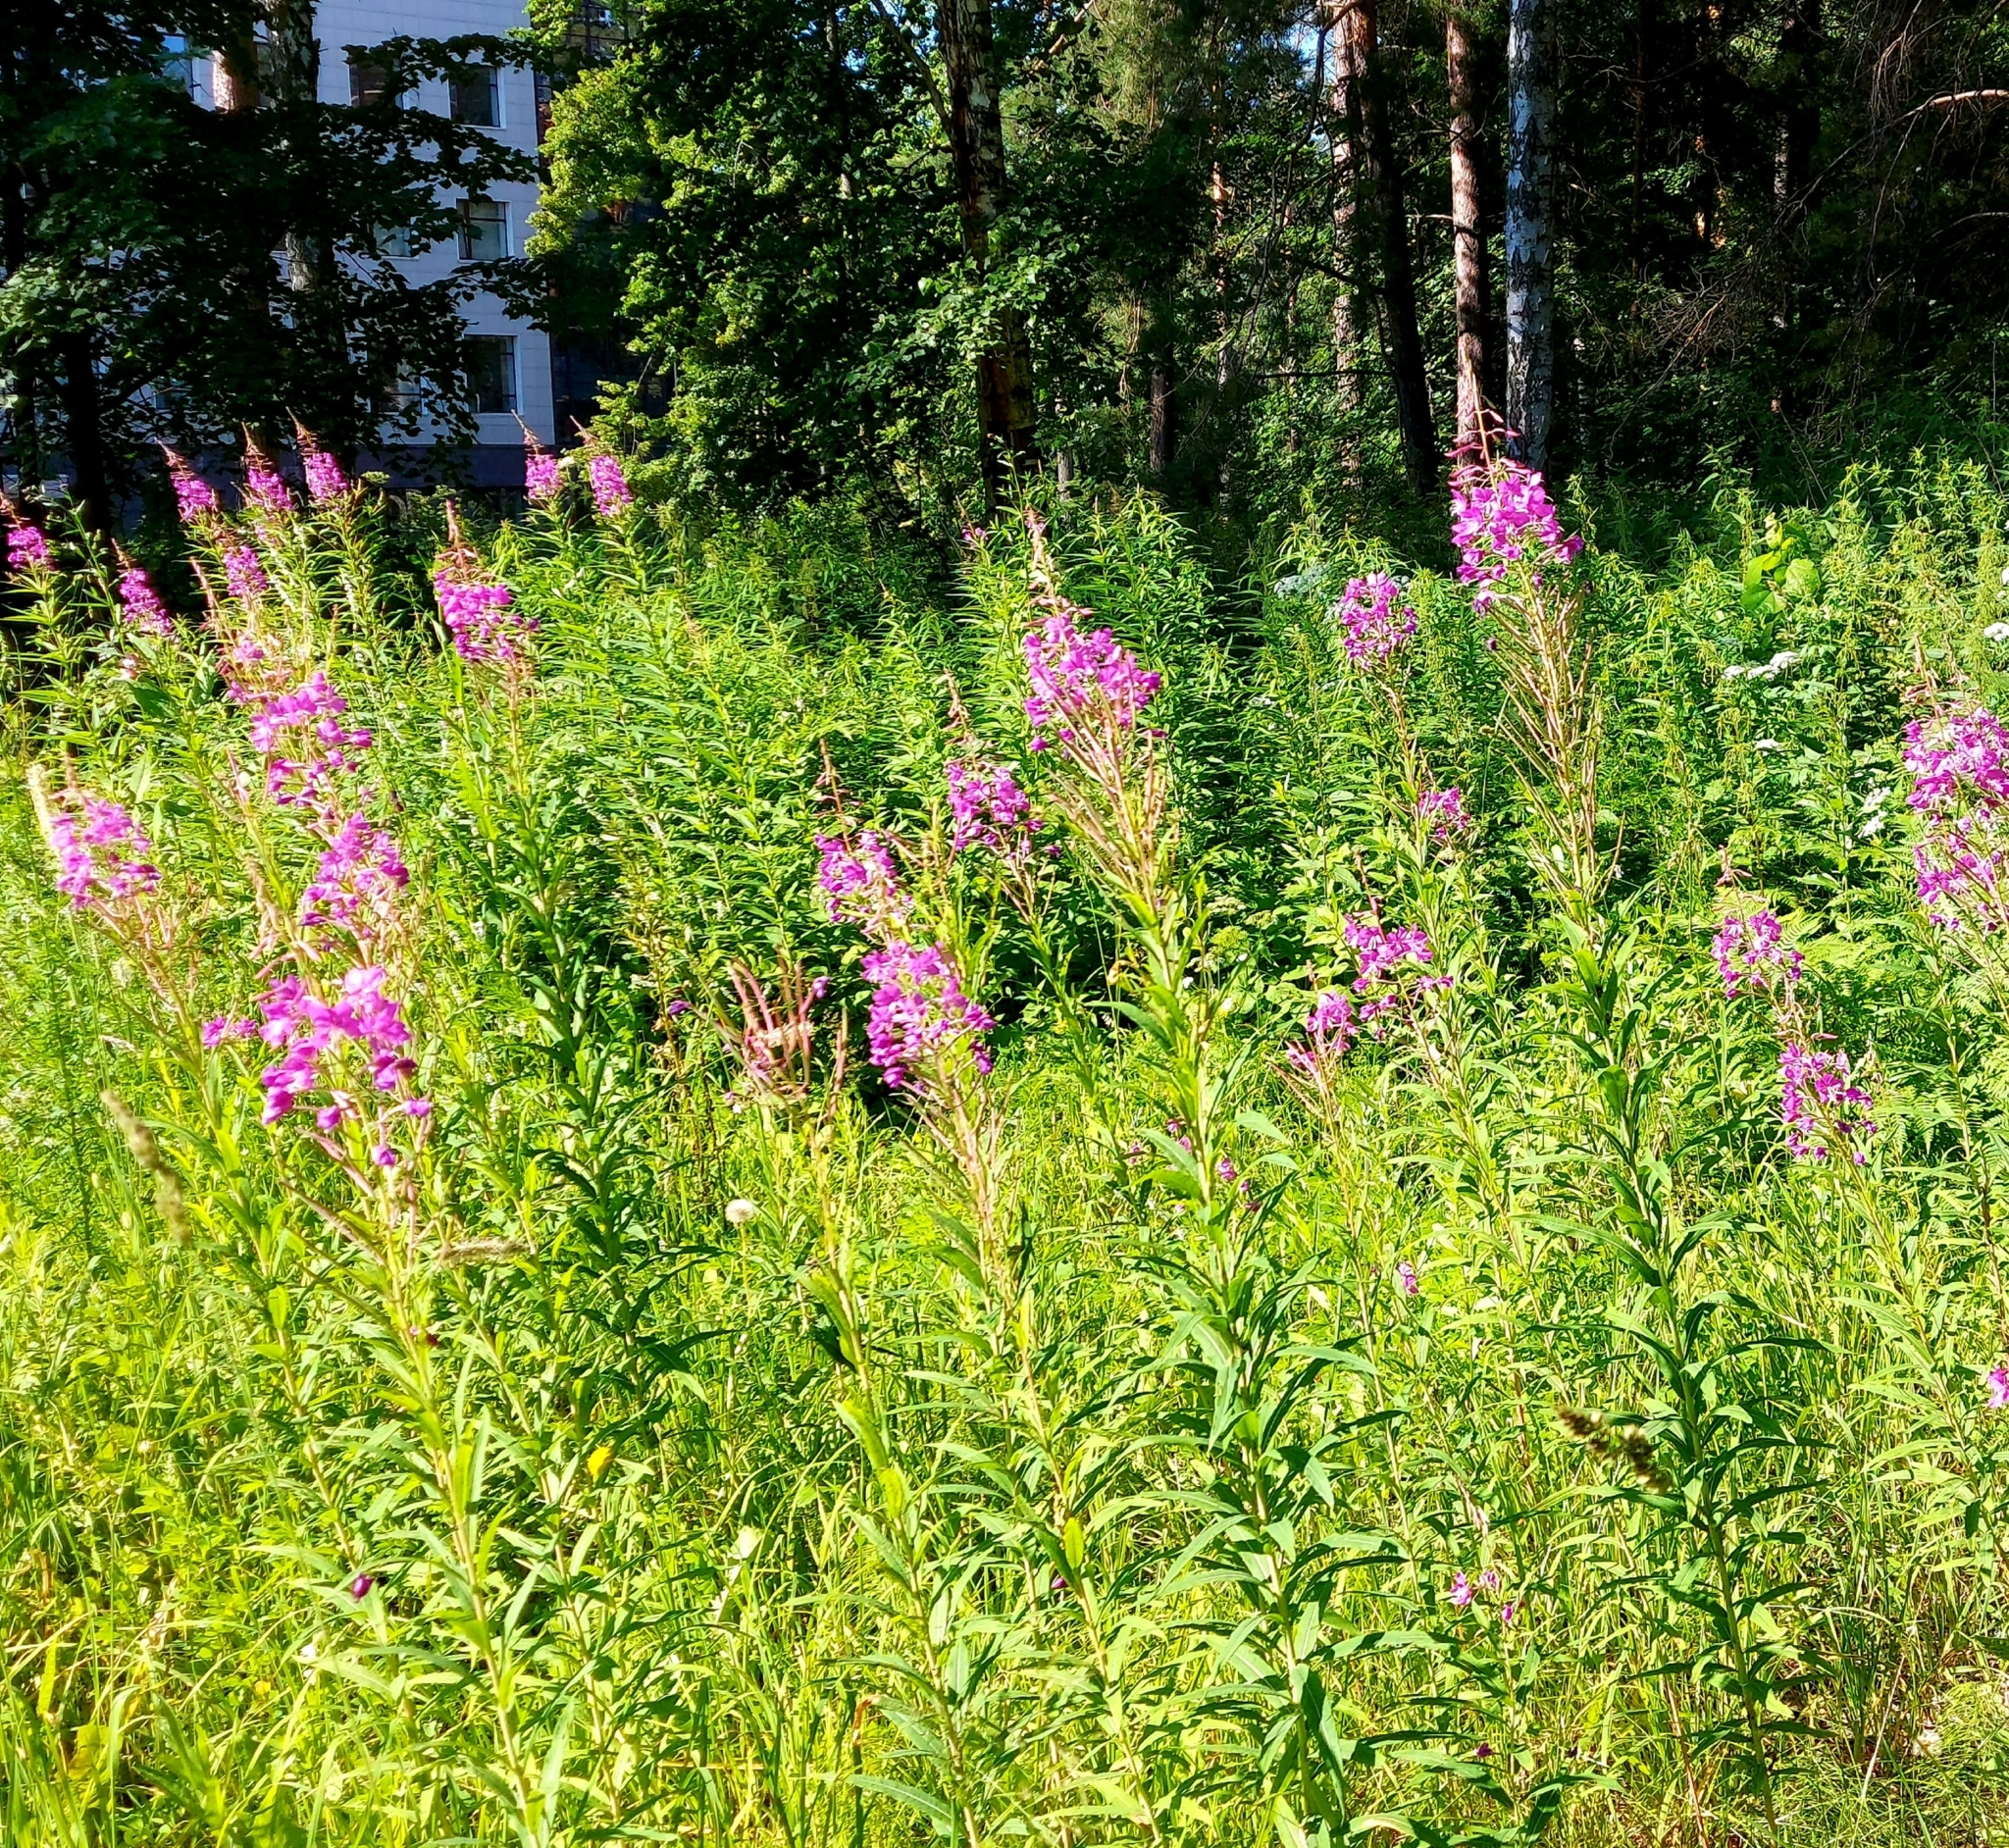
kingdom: Plantae
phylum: Tracheophyta
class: Magnoliopsida
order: Myrtales
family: Onagraceae
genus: Chamaenerion
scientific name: Chamaenerion angustifolium
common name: Fireweed
